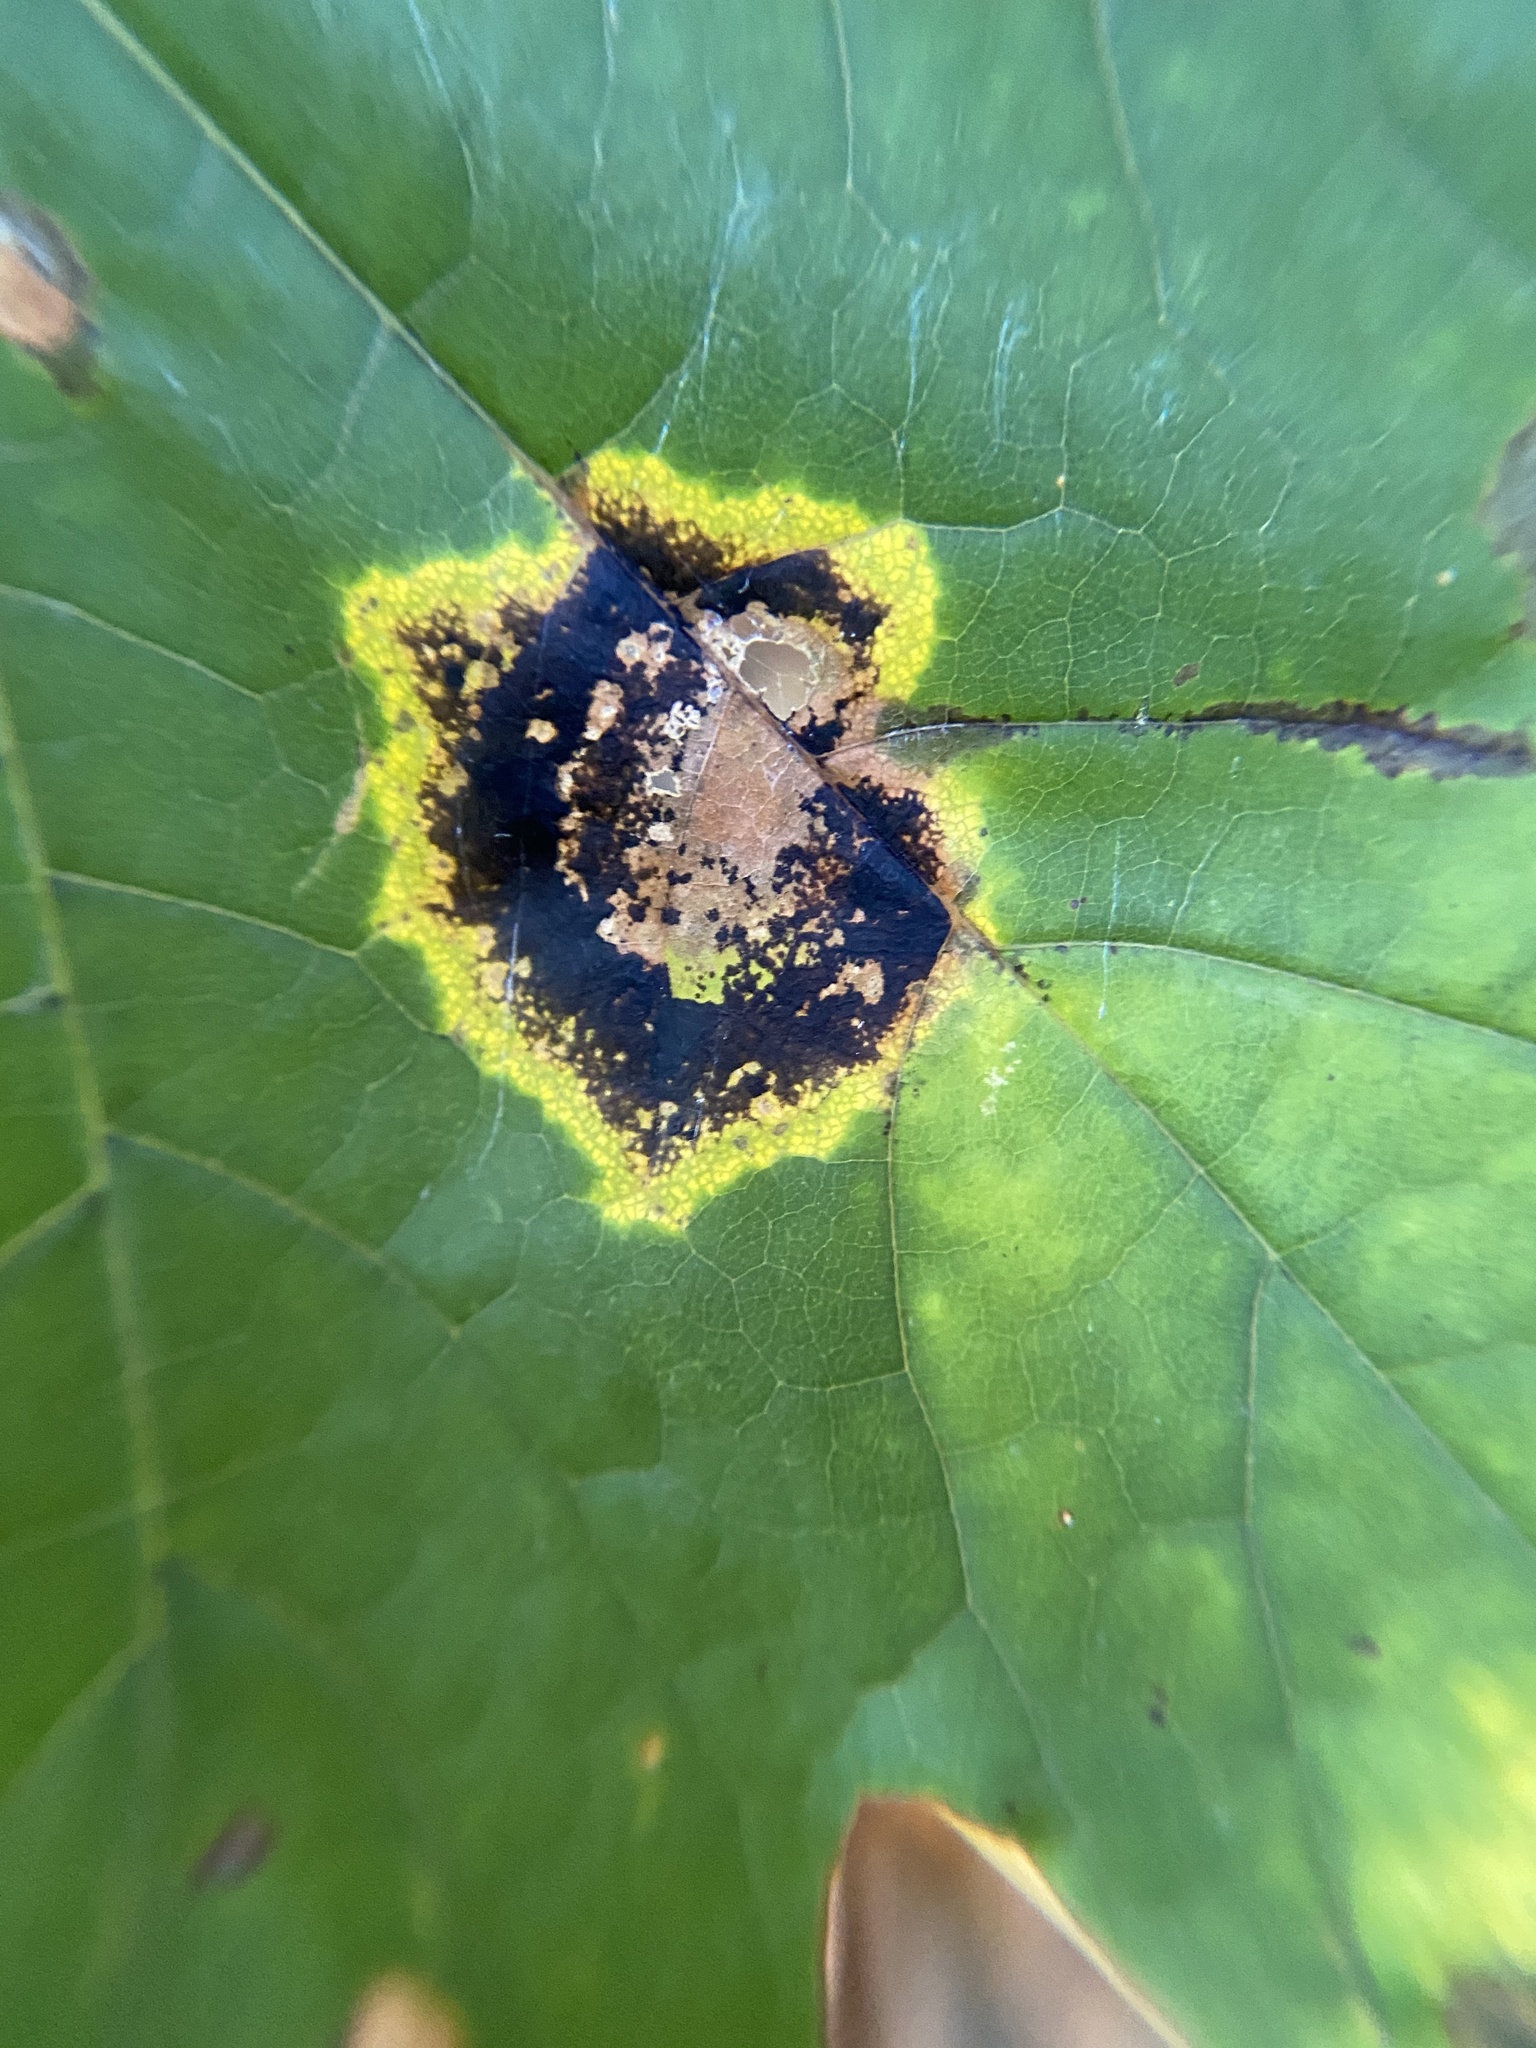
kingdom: Fungi
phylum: Ascomycota
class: Leotiomycetes
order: Rhytismatales
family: Rhytismataceae
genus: Rhytisma
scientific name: Rhytisma acerinum
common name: European tar spot
